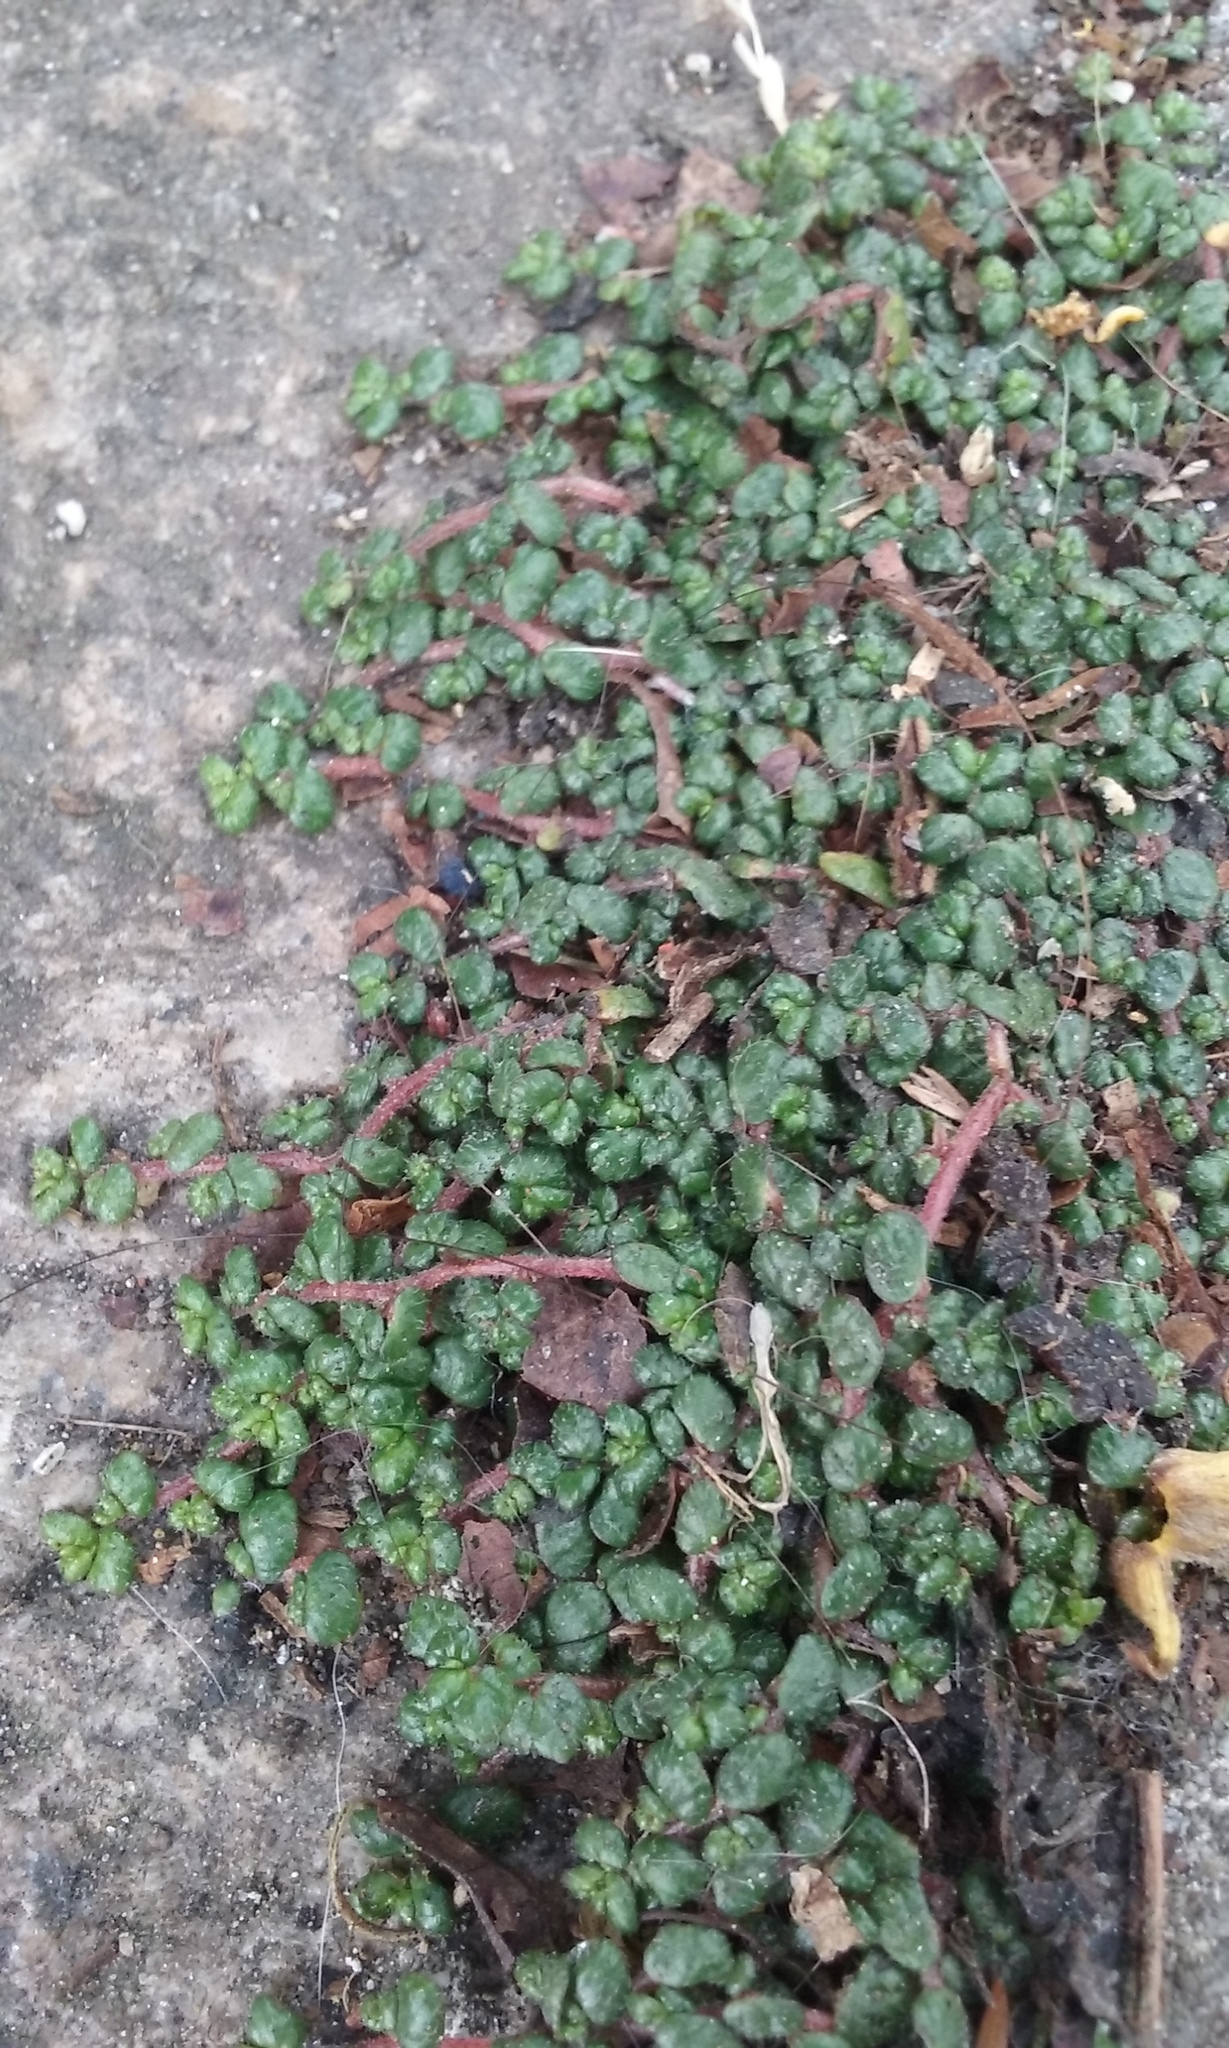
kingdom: Plantae
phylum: Tracheophyta
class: Magnoliopsida
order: Rosales
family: Urticaceae
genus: Soleirolia
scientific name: Soleirolia soleirolii
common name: Mind-your-own-business
